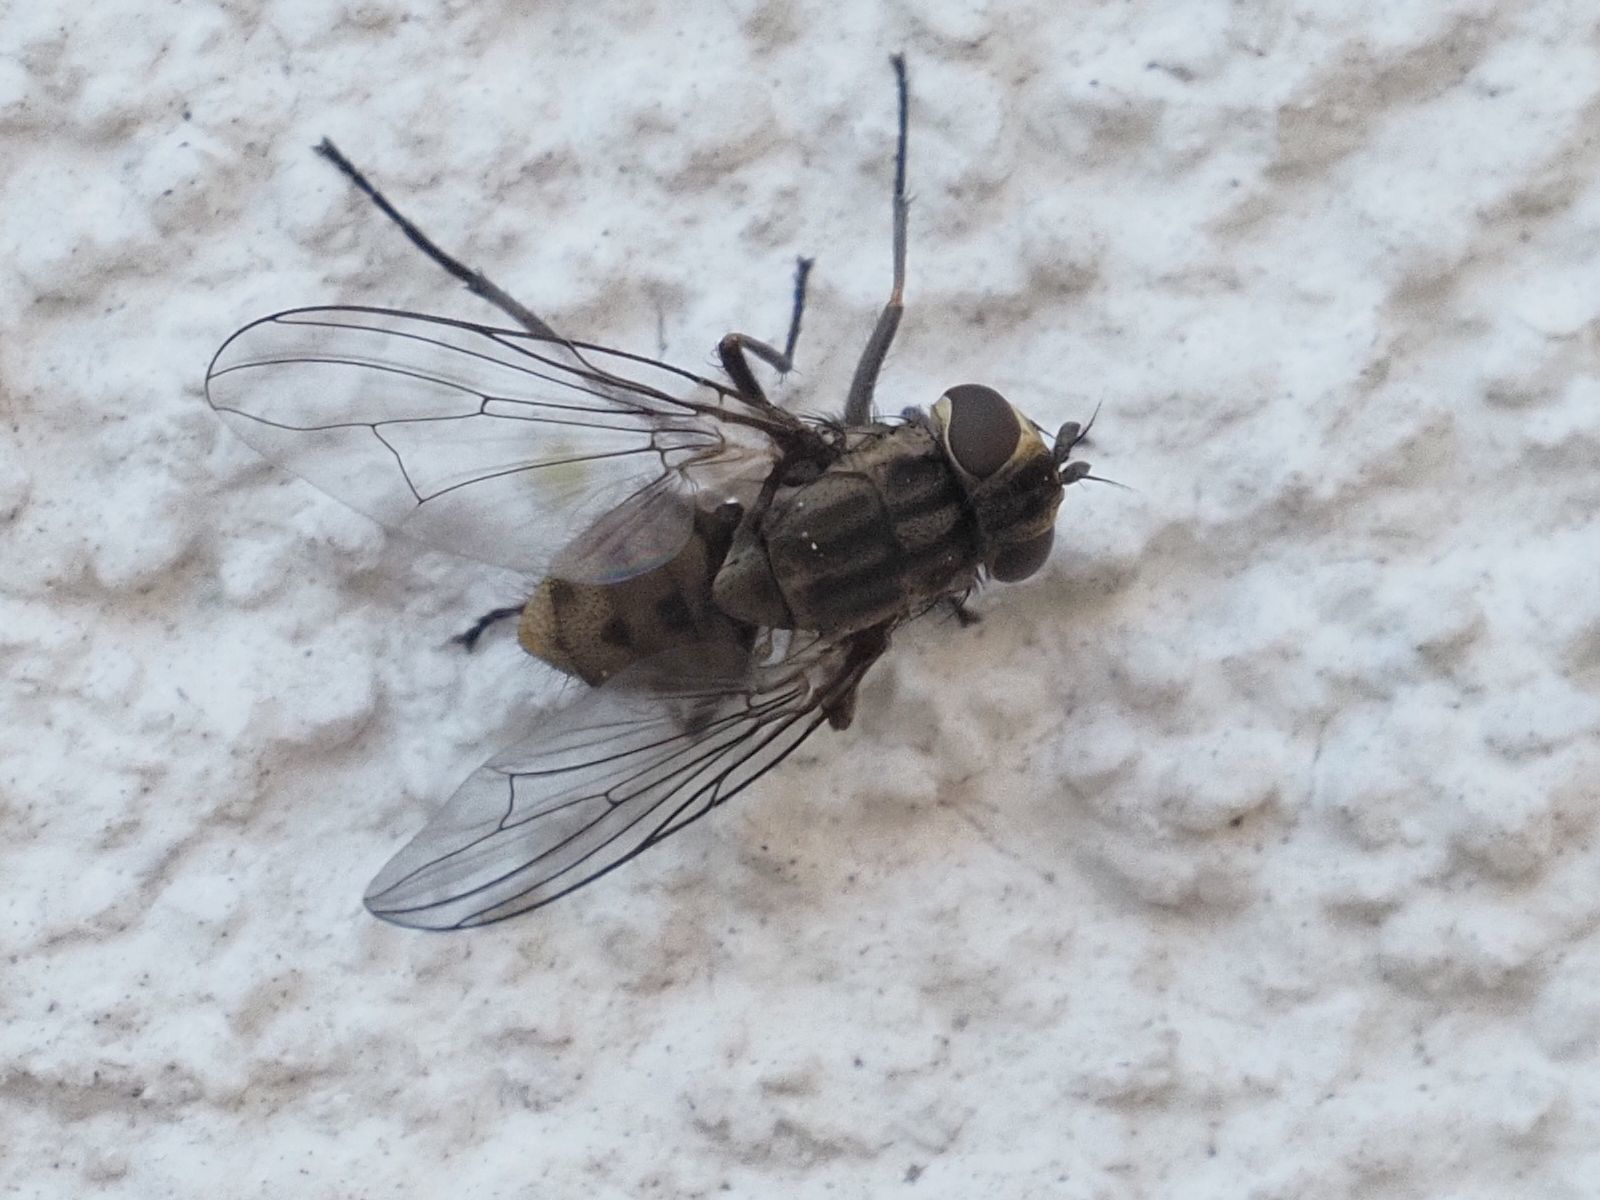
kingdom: Animalia
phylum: Arthropoda
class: Insecta
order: Diptera
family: Muscidae
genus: Stomoxys
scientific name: Stomoxys calcitrans
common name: Stable fly
